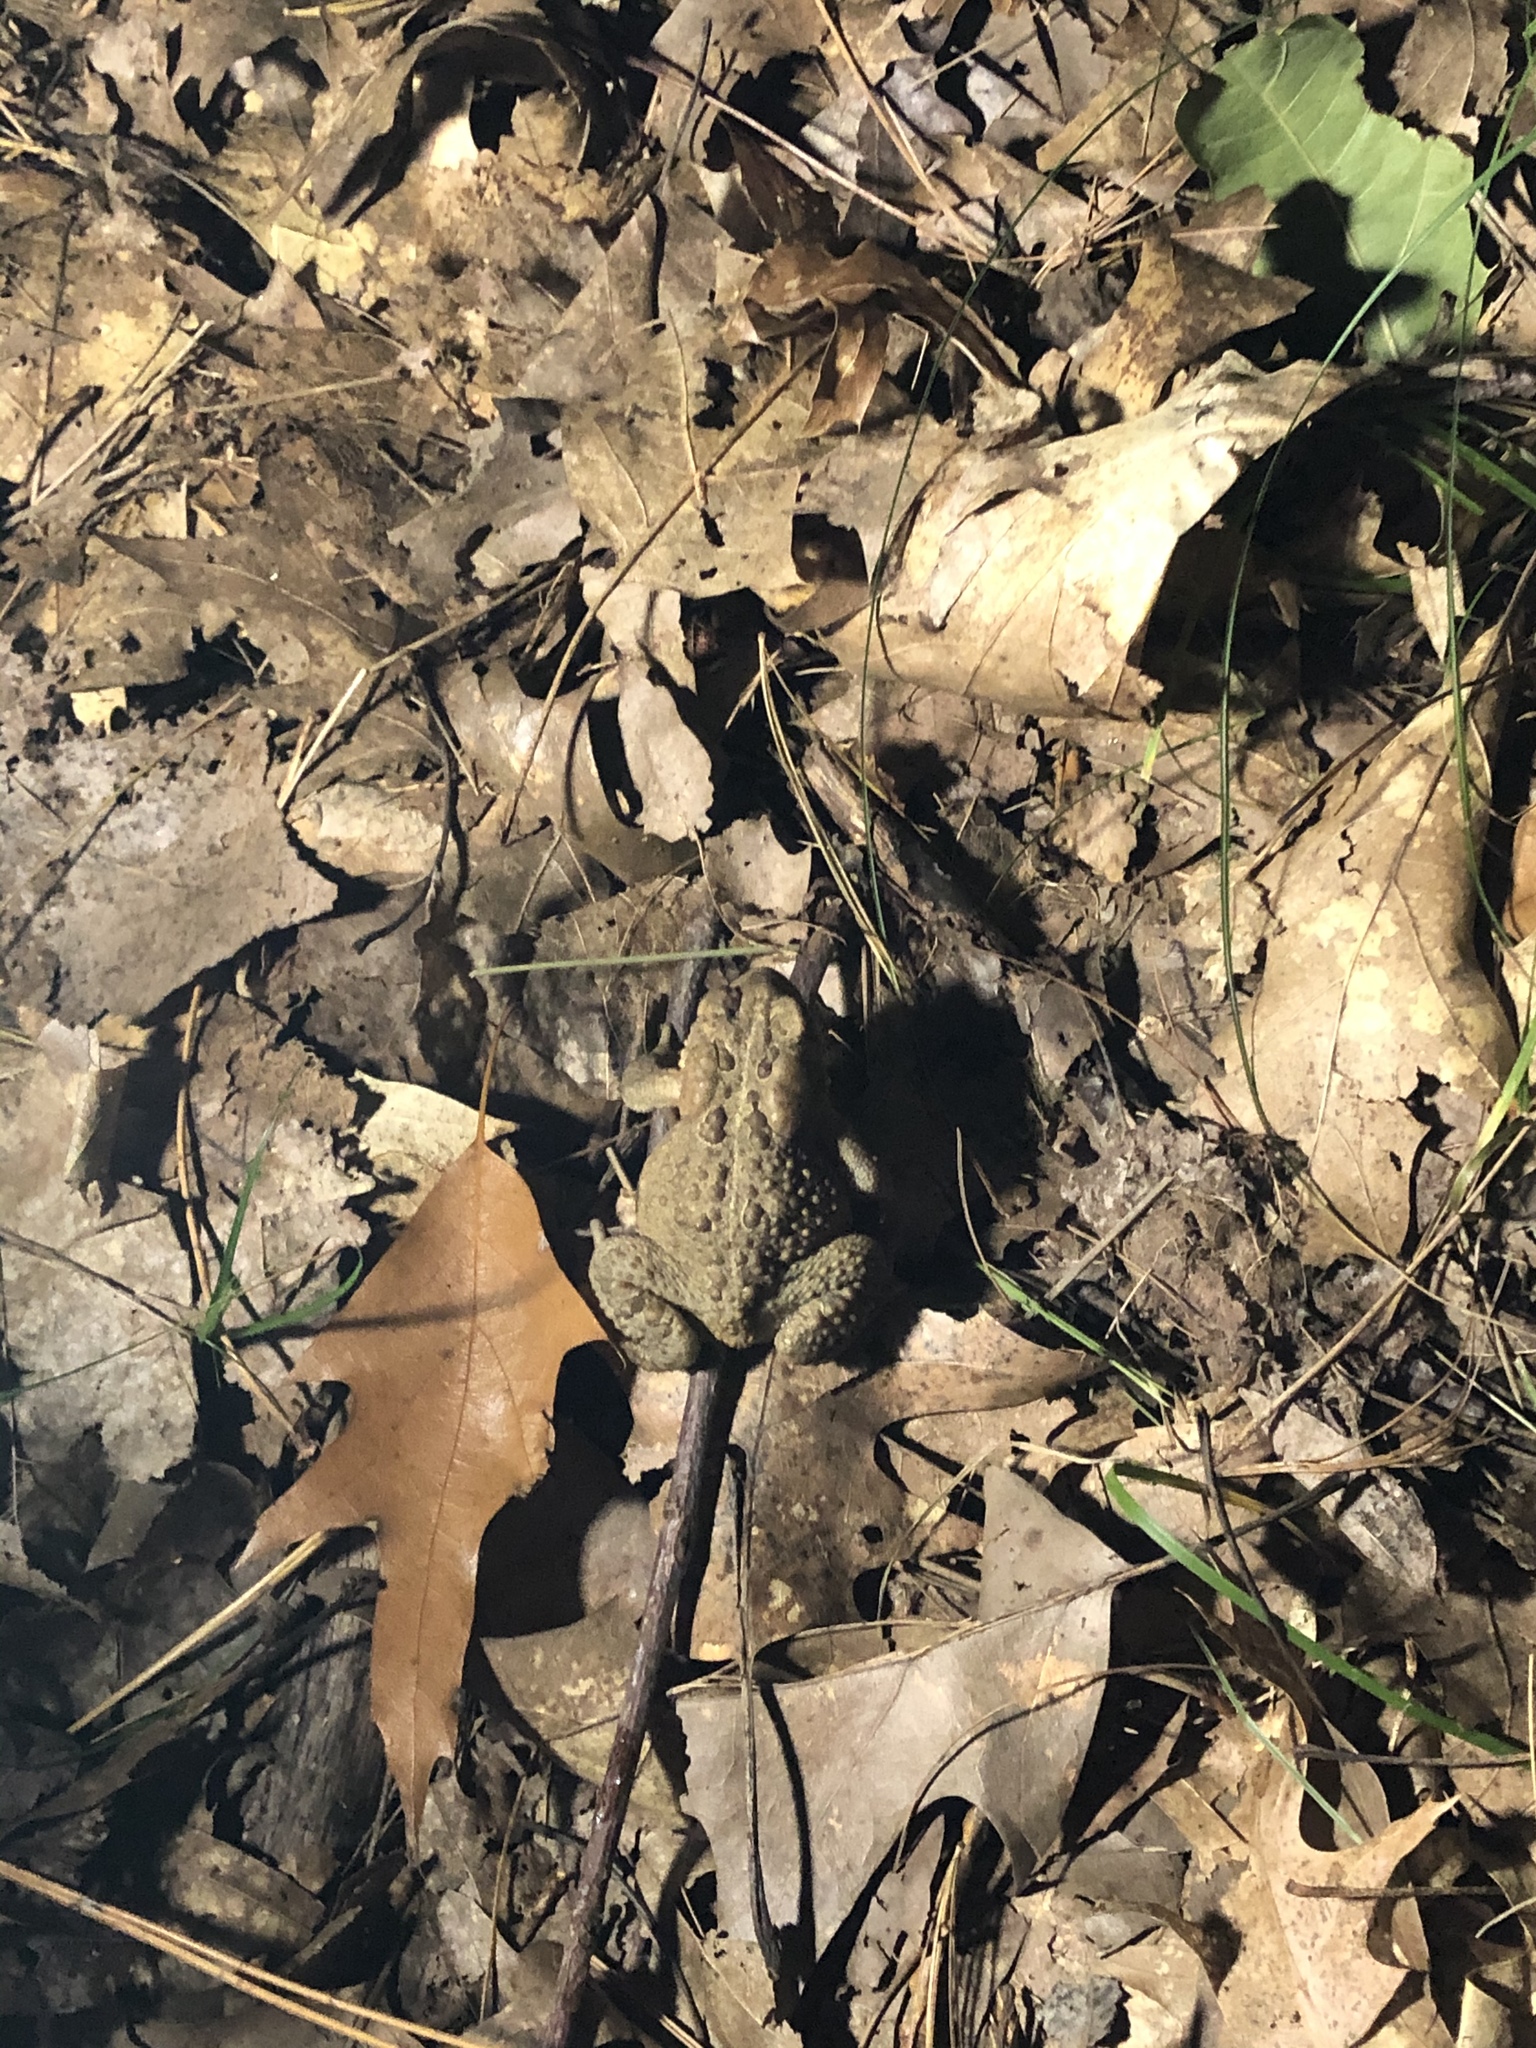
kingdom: Animalia
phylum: Chordata
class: Amphibia
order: Anura
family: Bufonidae
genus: Anaxyrus
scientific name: Anaxyrus americanus
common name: American toad
